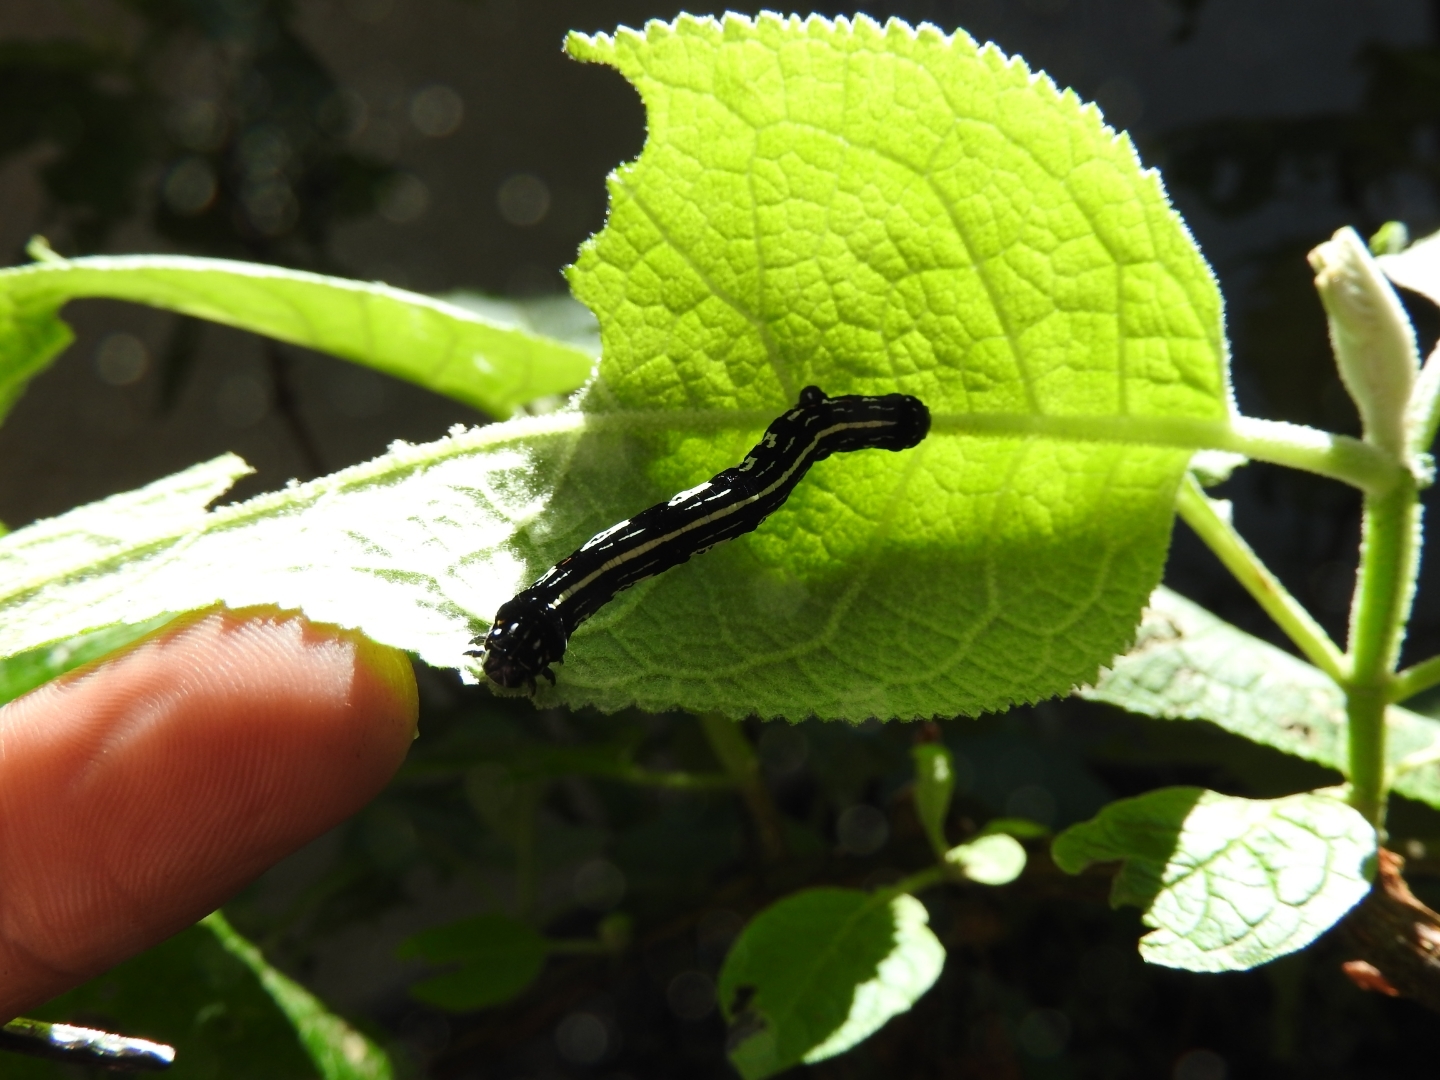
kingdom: Animalia
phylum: Arthropoda
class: Insecta
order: Lepidoptera
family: Geometridae
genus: Acronyctodes
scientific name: Acronyctodes mexicanaria
